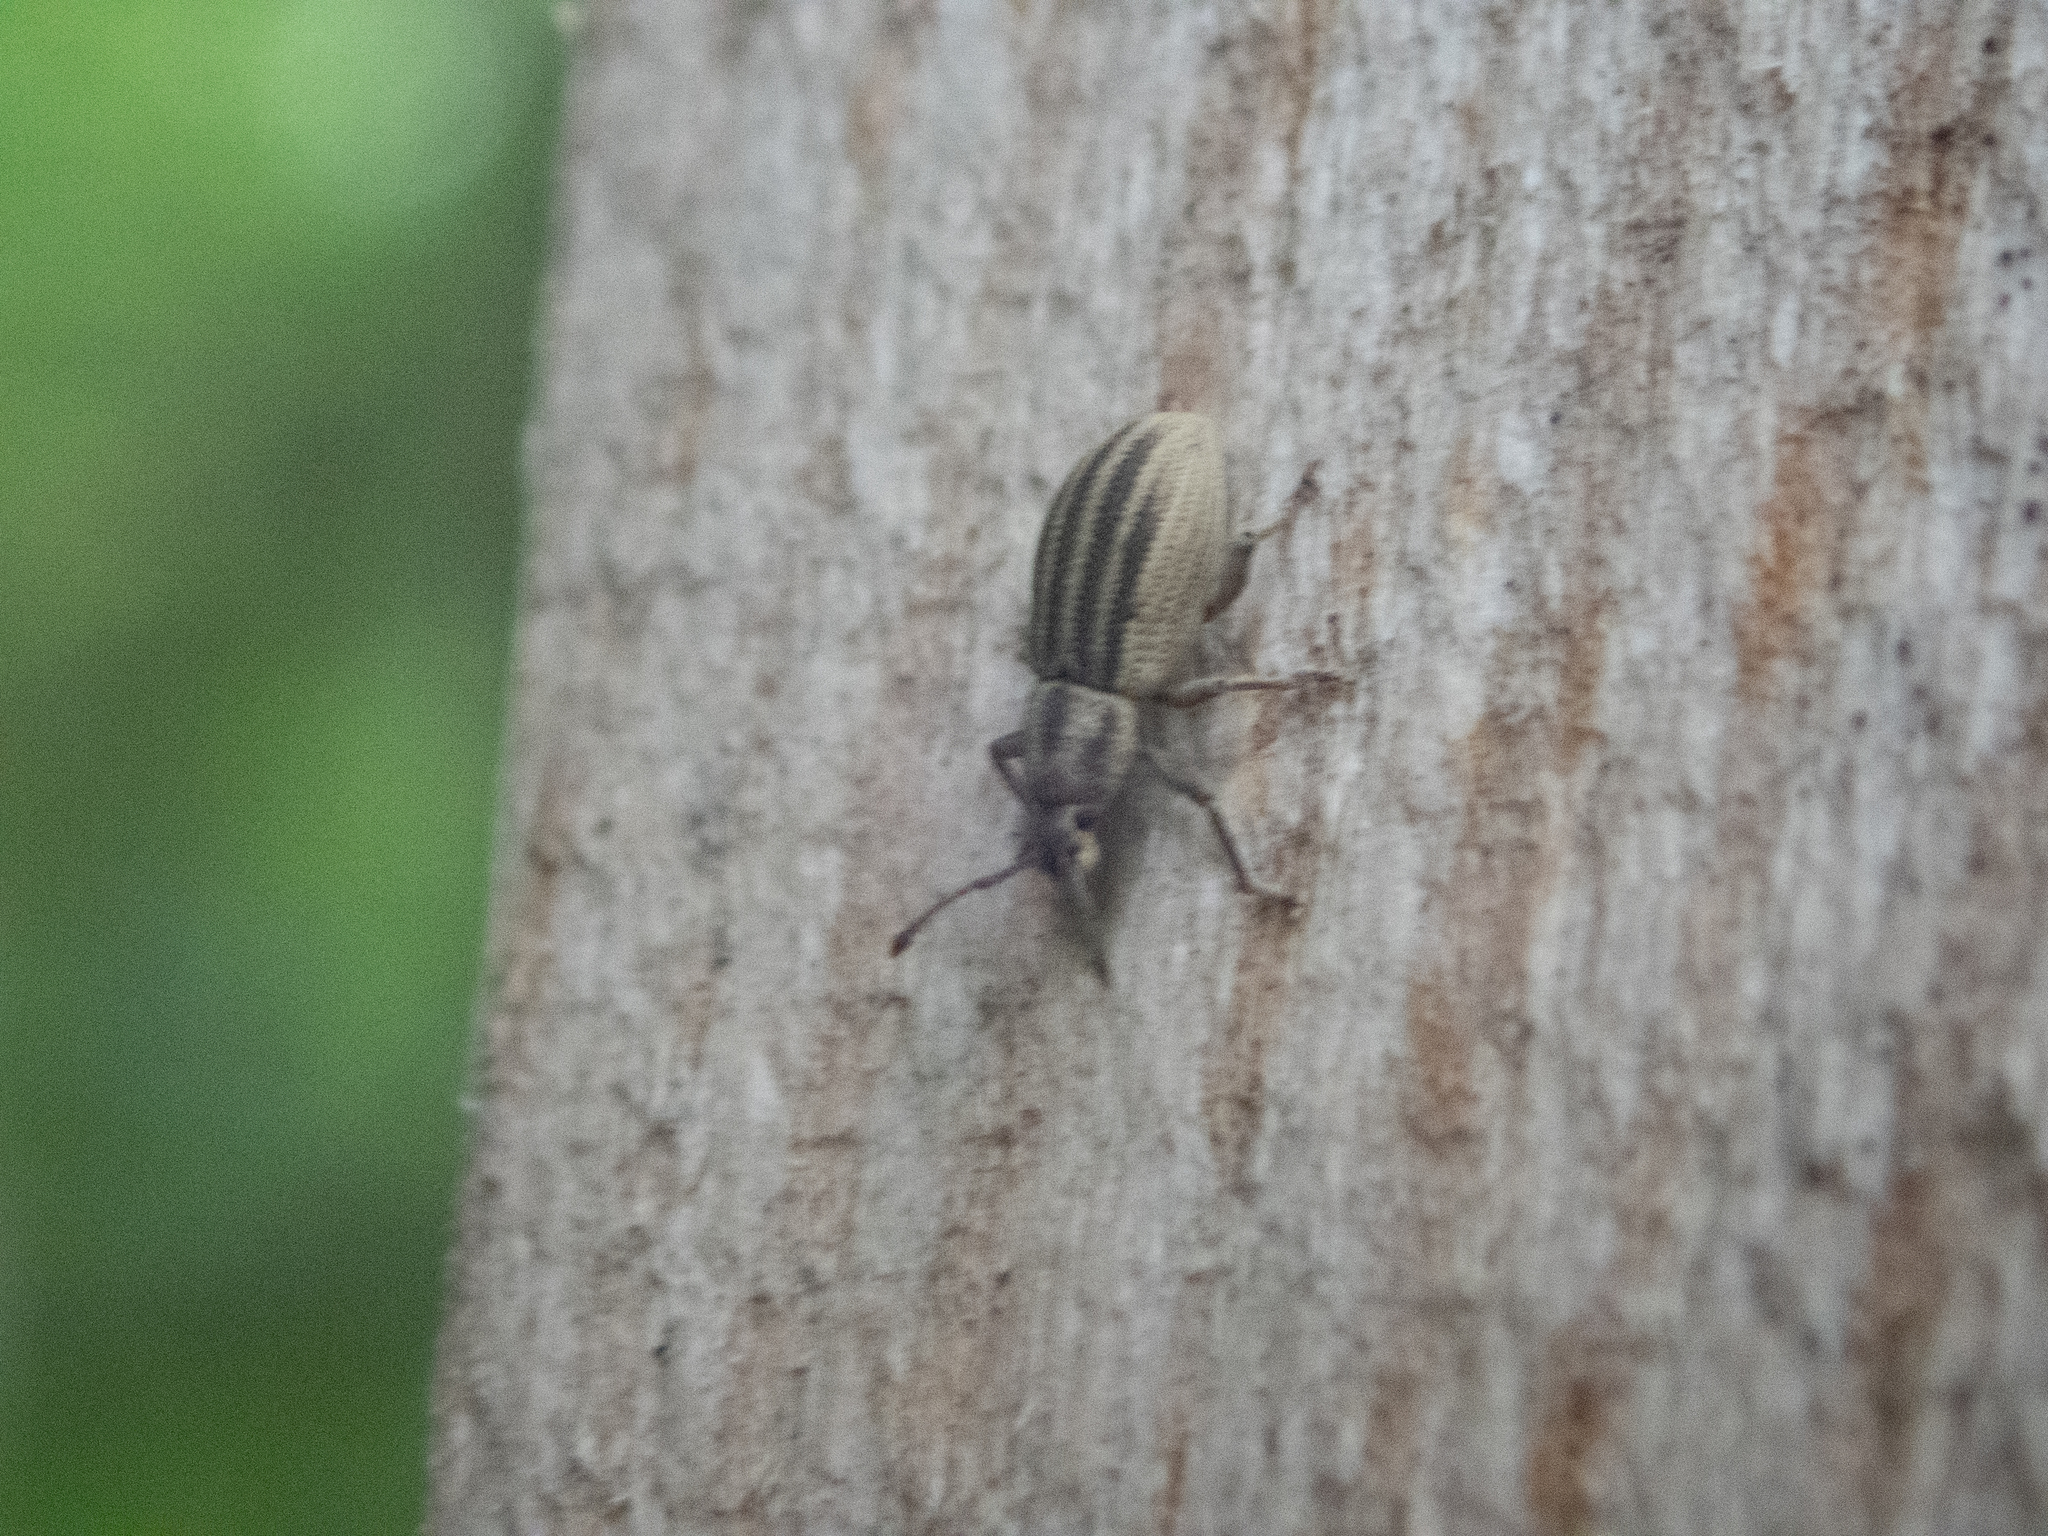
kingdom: Animalia
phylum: Arthropoda
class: Insecta
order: Coleoptera
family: Curculionidae
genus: Aphrastus
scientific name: Aphrastus taeniatus
